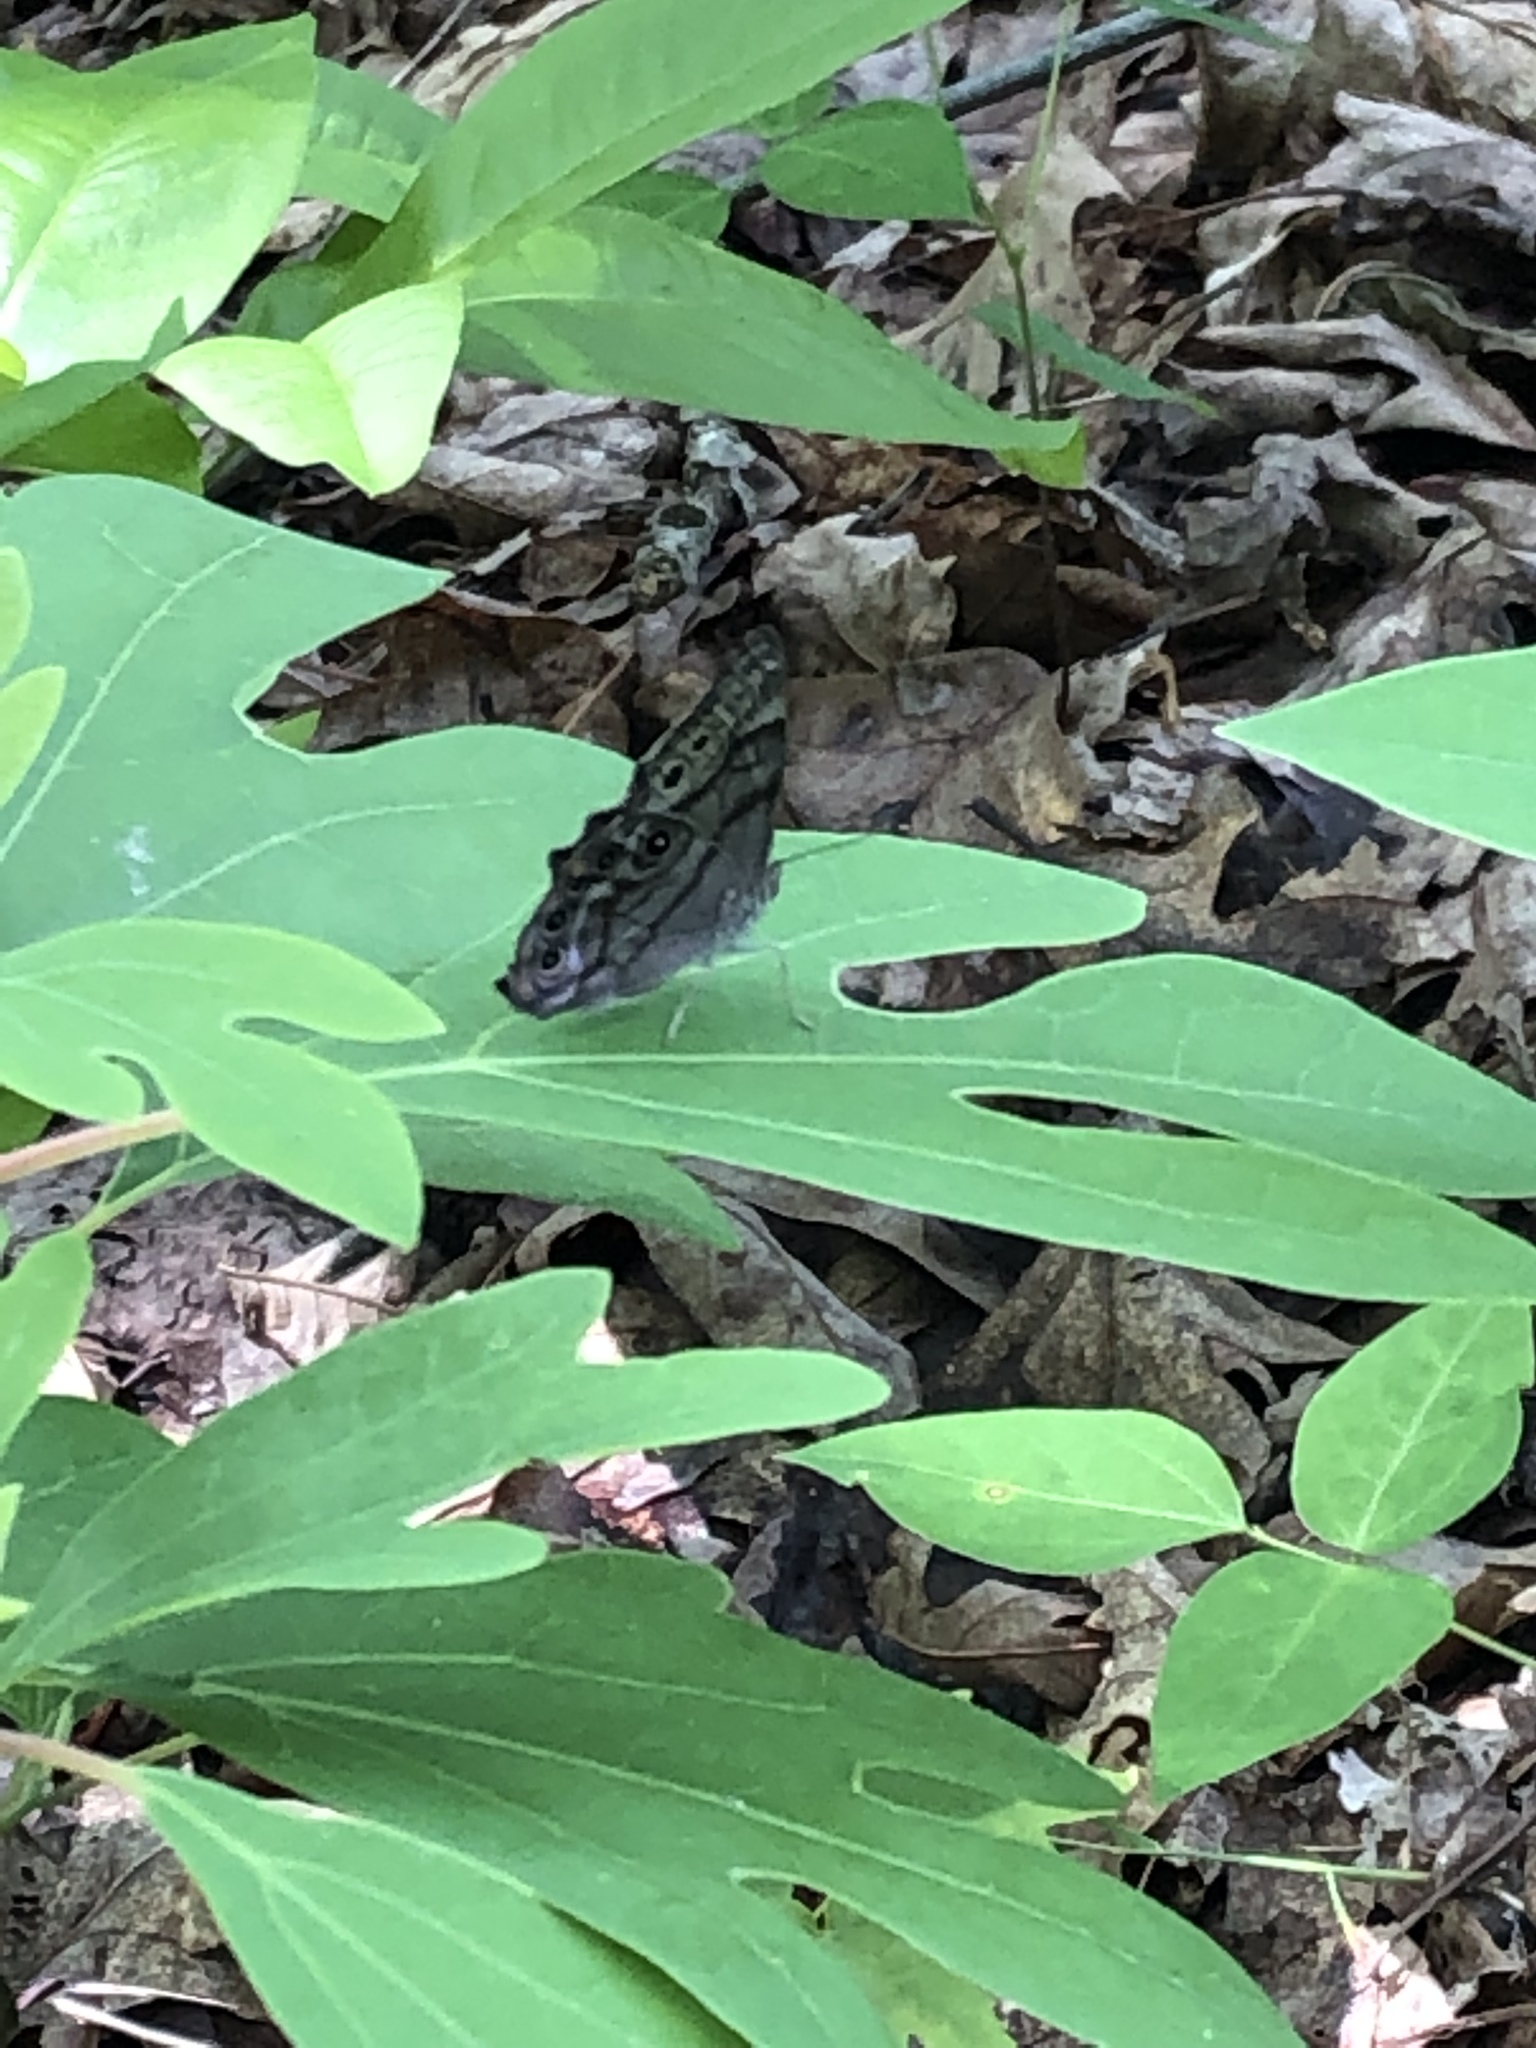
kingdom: Animalia
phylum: Arthropoda
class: Insecta
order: Lepidoptera
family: Nymphalidae
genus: Lethe
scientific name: Lethe anthedon
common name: Northern pearly-eye
